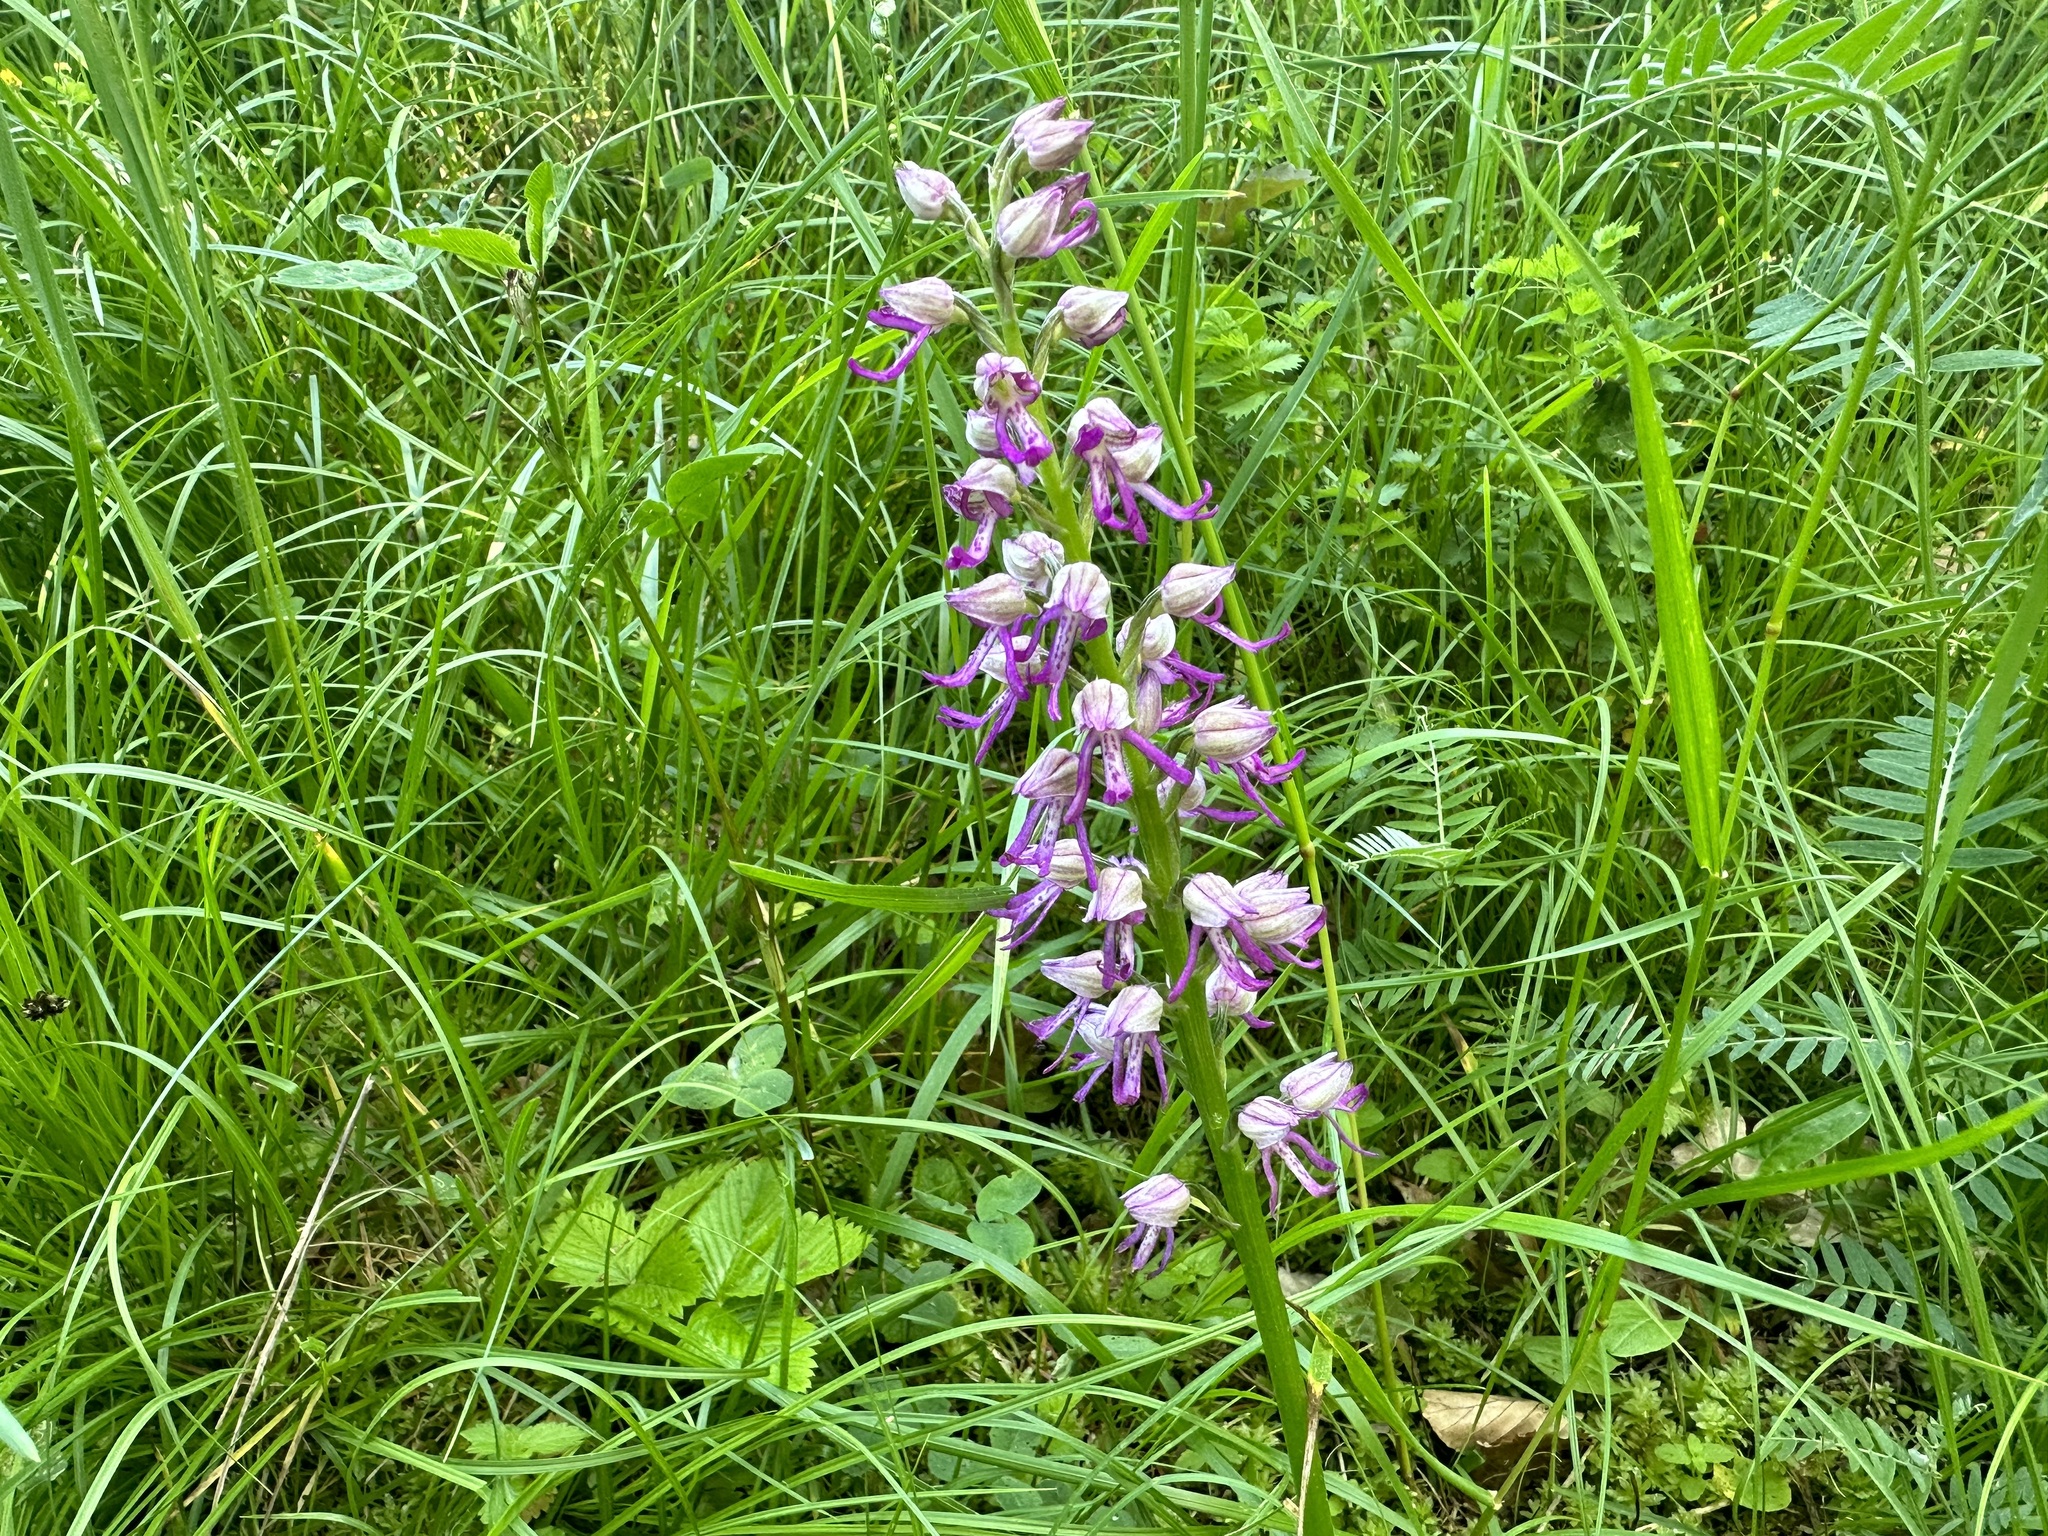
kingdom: Plantae
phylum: Tracheophyta
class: Liliopsida
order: Asparagales
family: Orchidaceae
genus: Orchis
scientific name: Orchis militaris
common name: Military orchid
